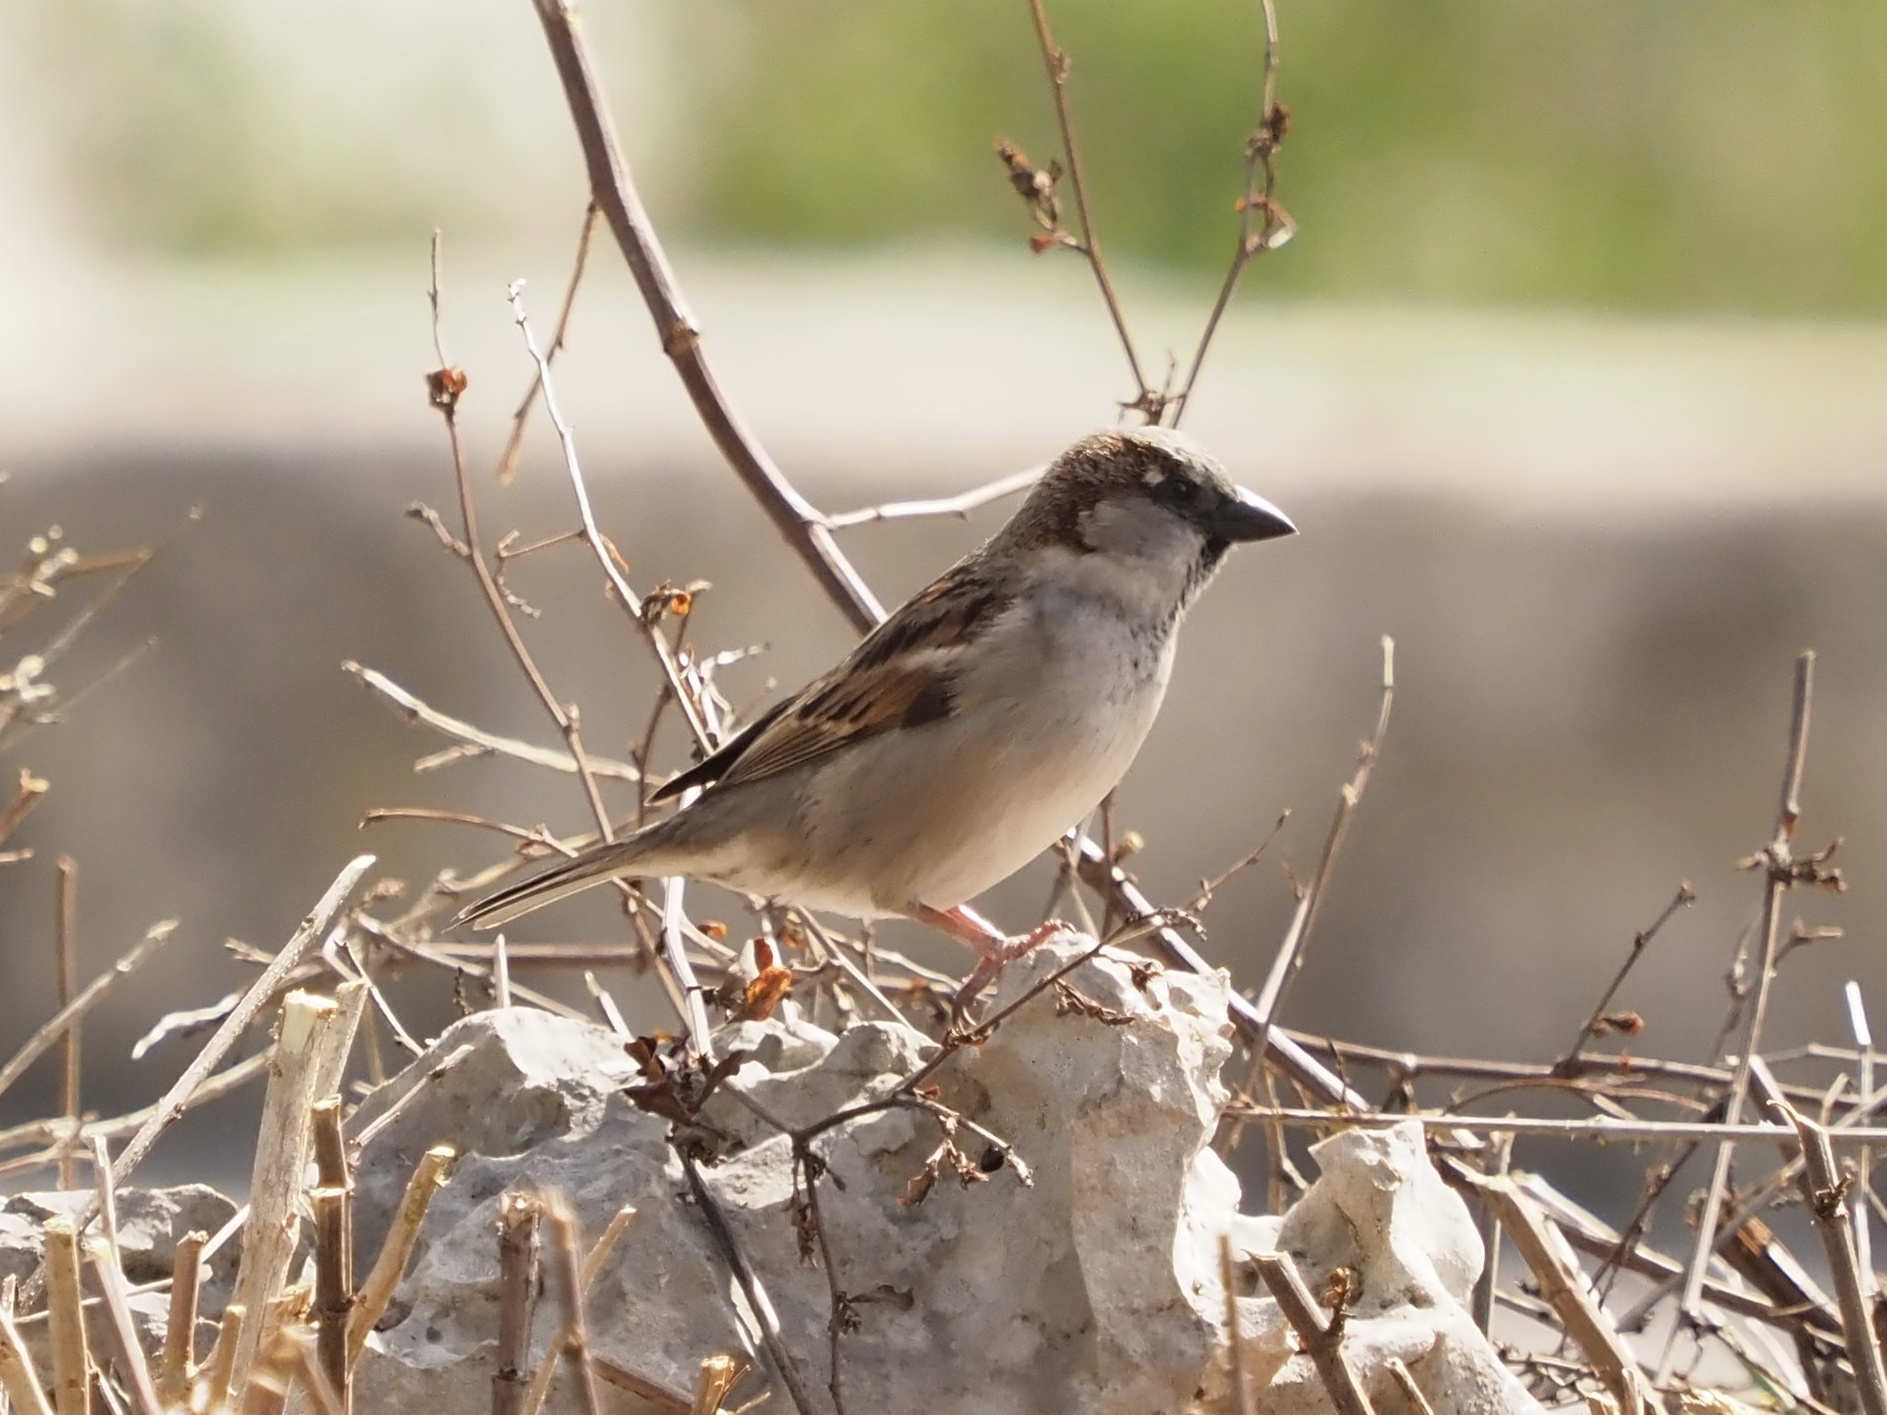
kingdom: Animalia
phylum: Chordata
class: Aves
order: Passeriformes
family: Passeridae
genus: Passer
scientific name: Passer domesticus
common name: House sparrow
